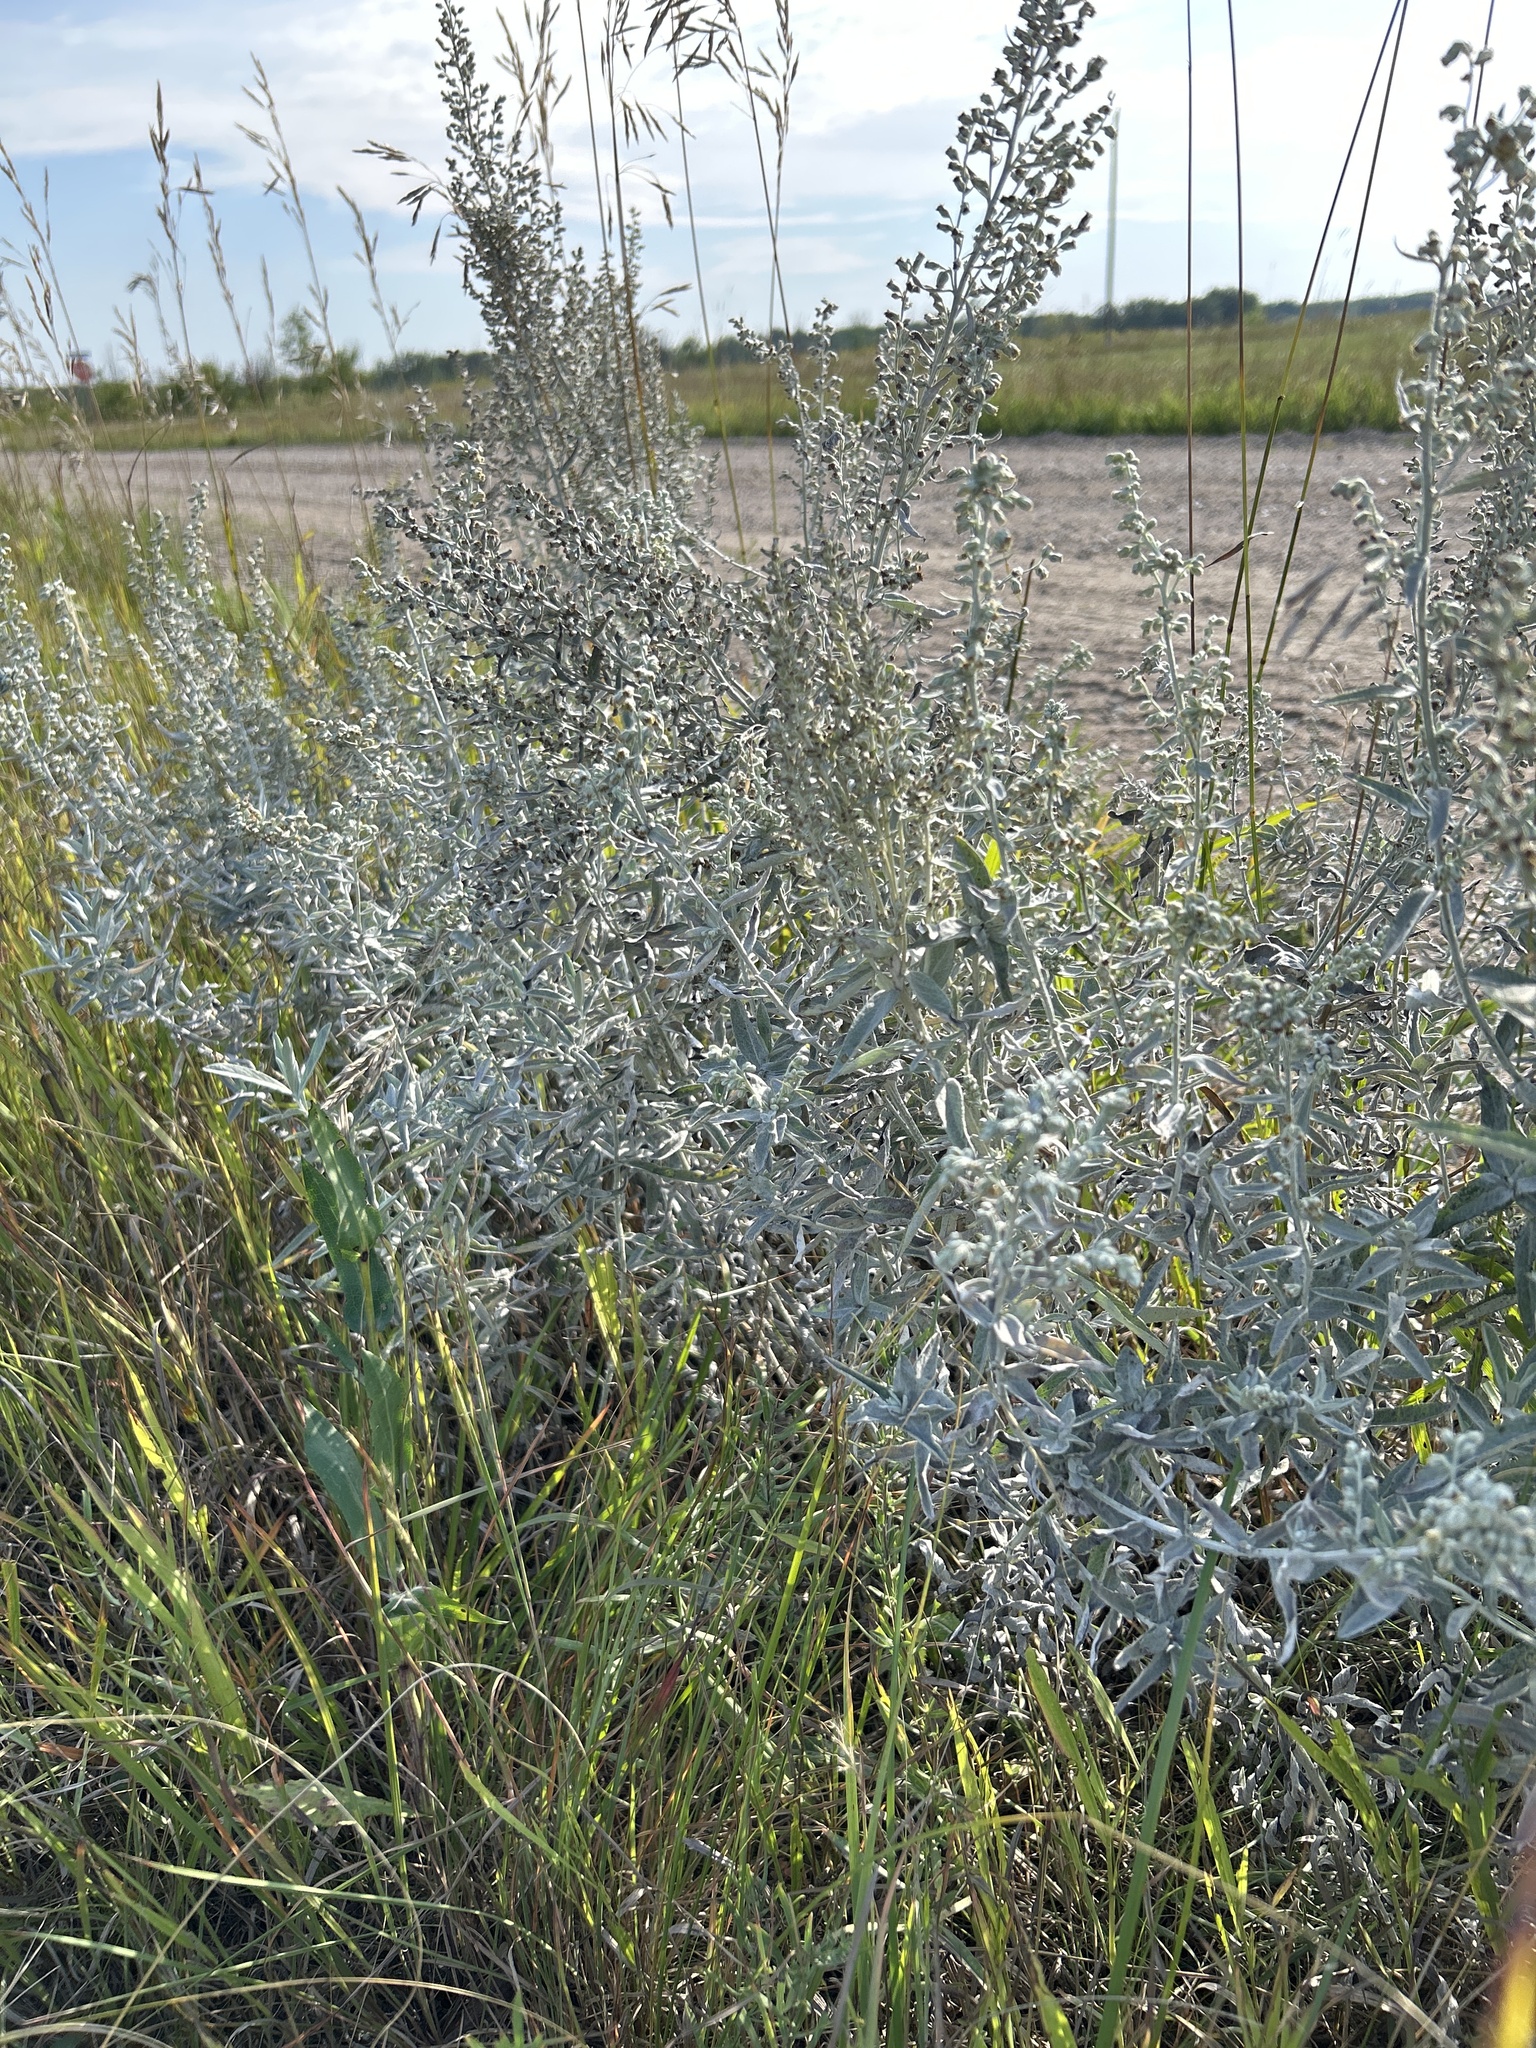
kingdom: Plantae
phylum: Tracheophyta
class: Magnoliopsida
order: Asterales
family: Asteraceae
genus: Artemisia
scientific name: Artemisia ludoviciana
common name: Western mugwort
